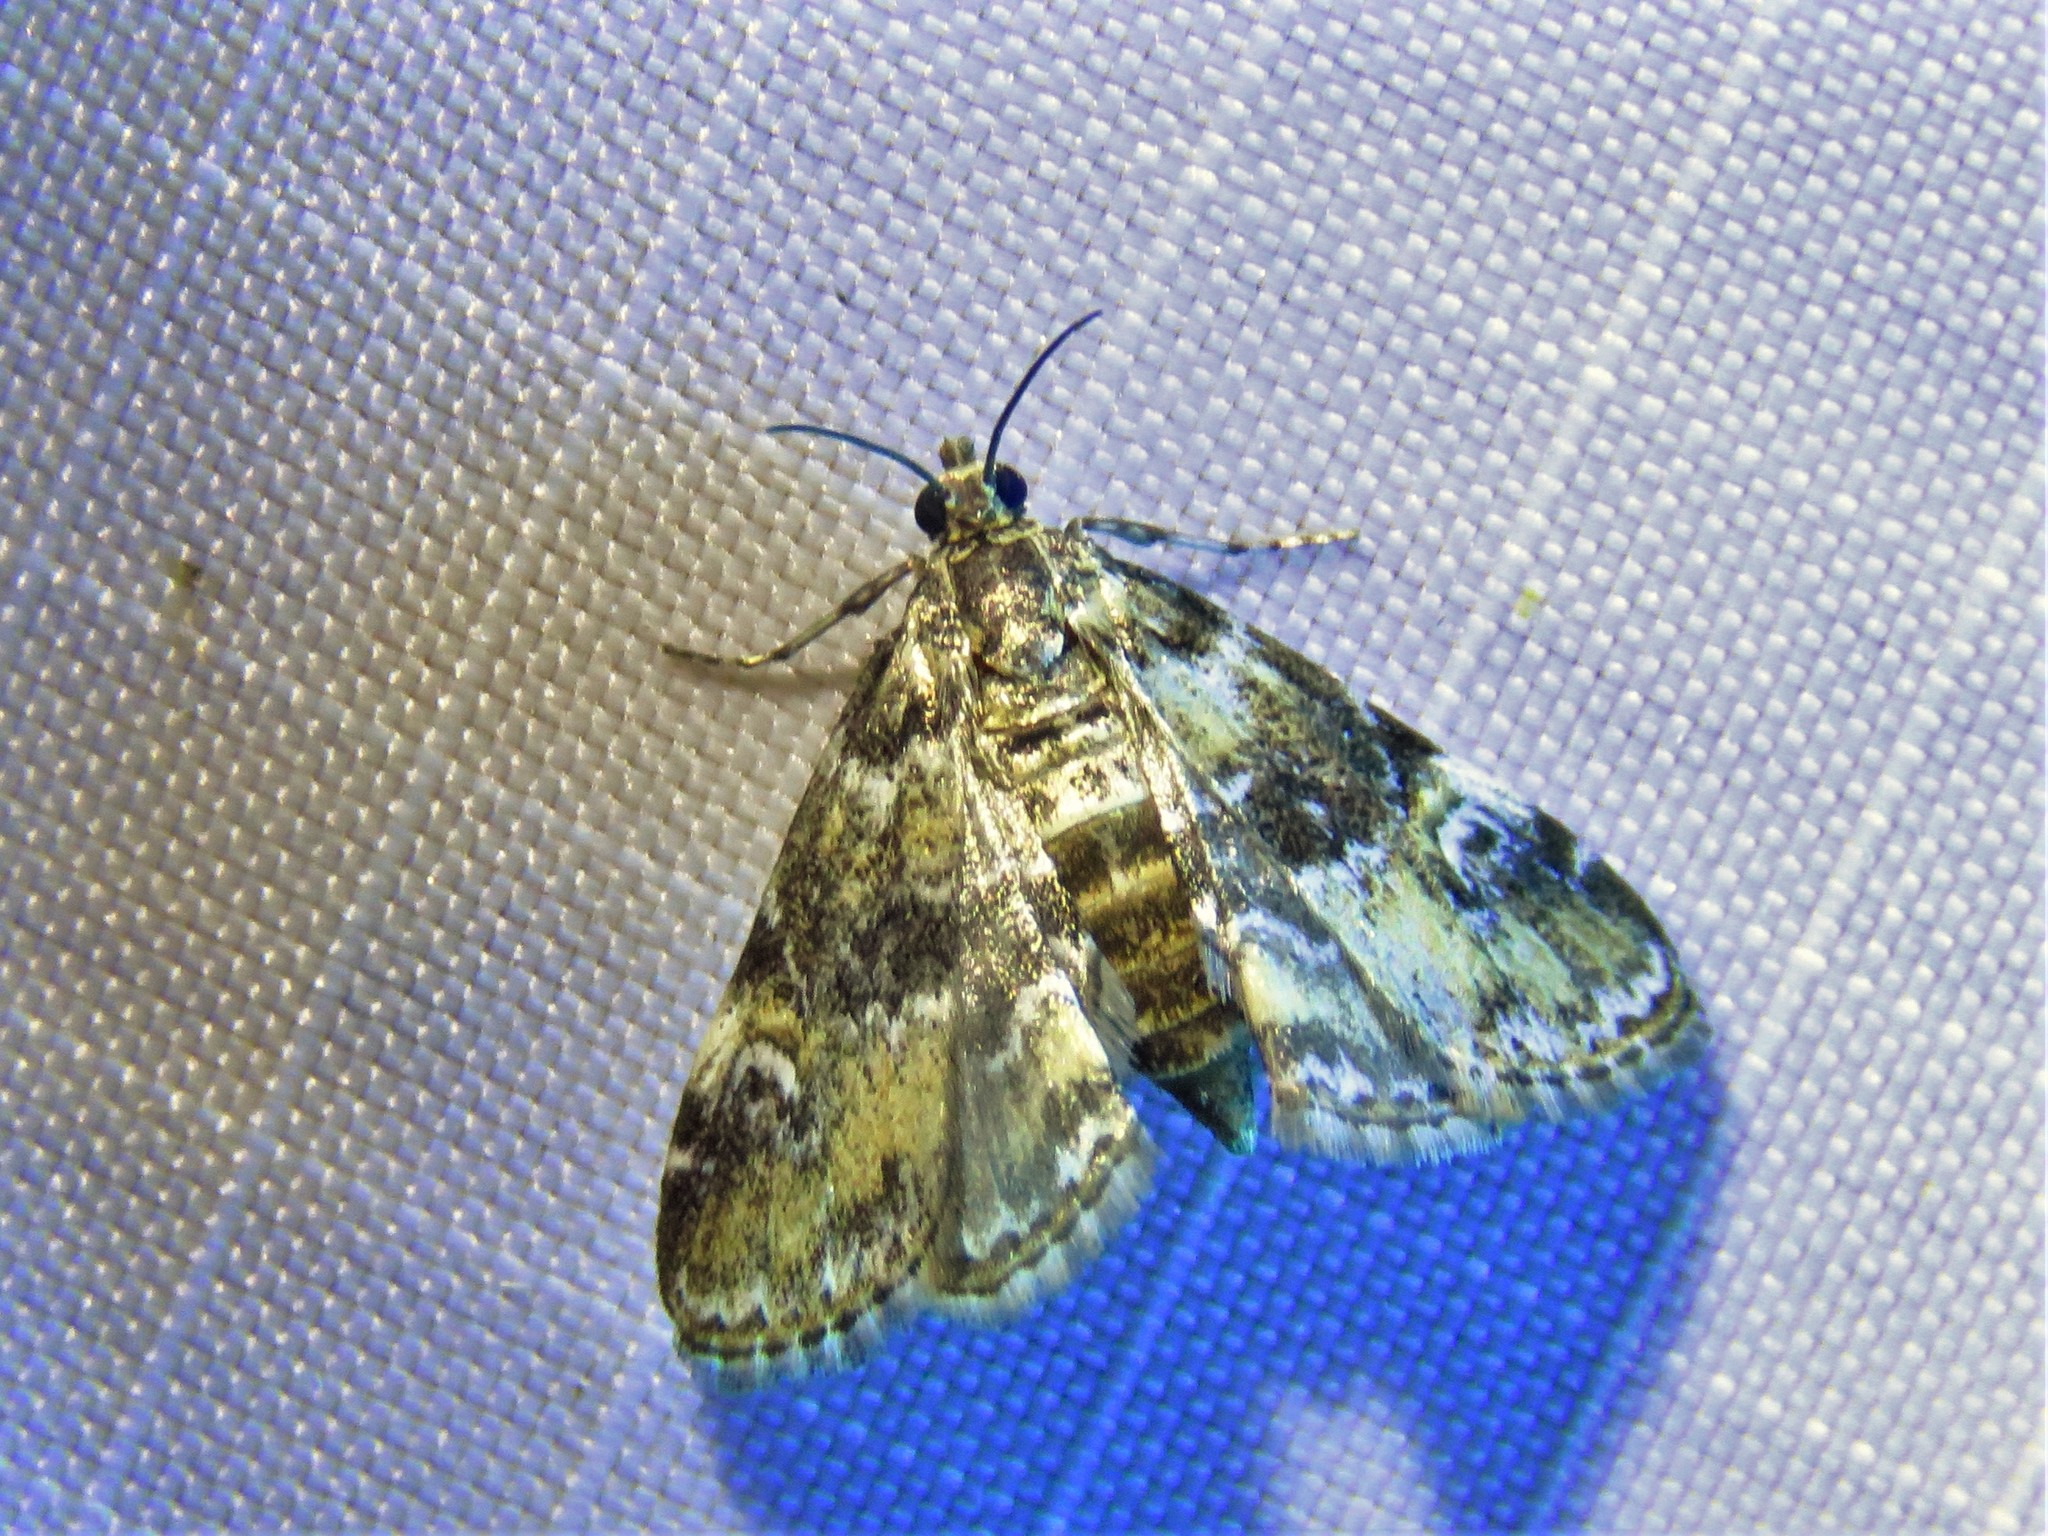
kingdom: Animalia
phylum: Arthropoda
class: Insecta
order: Lepidoptera
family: Crambidae
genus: Elophila
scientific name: Elophila obliteralis
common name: Waterlily leafcutter moth
